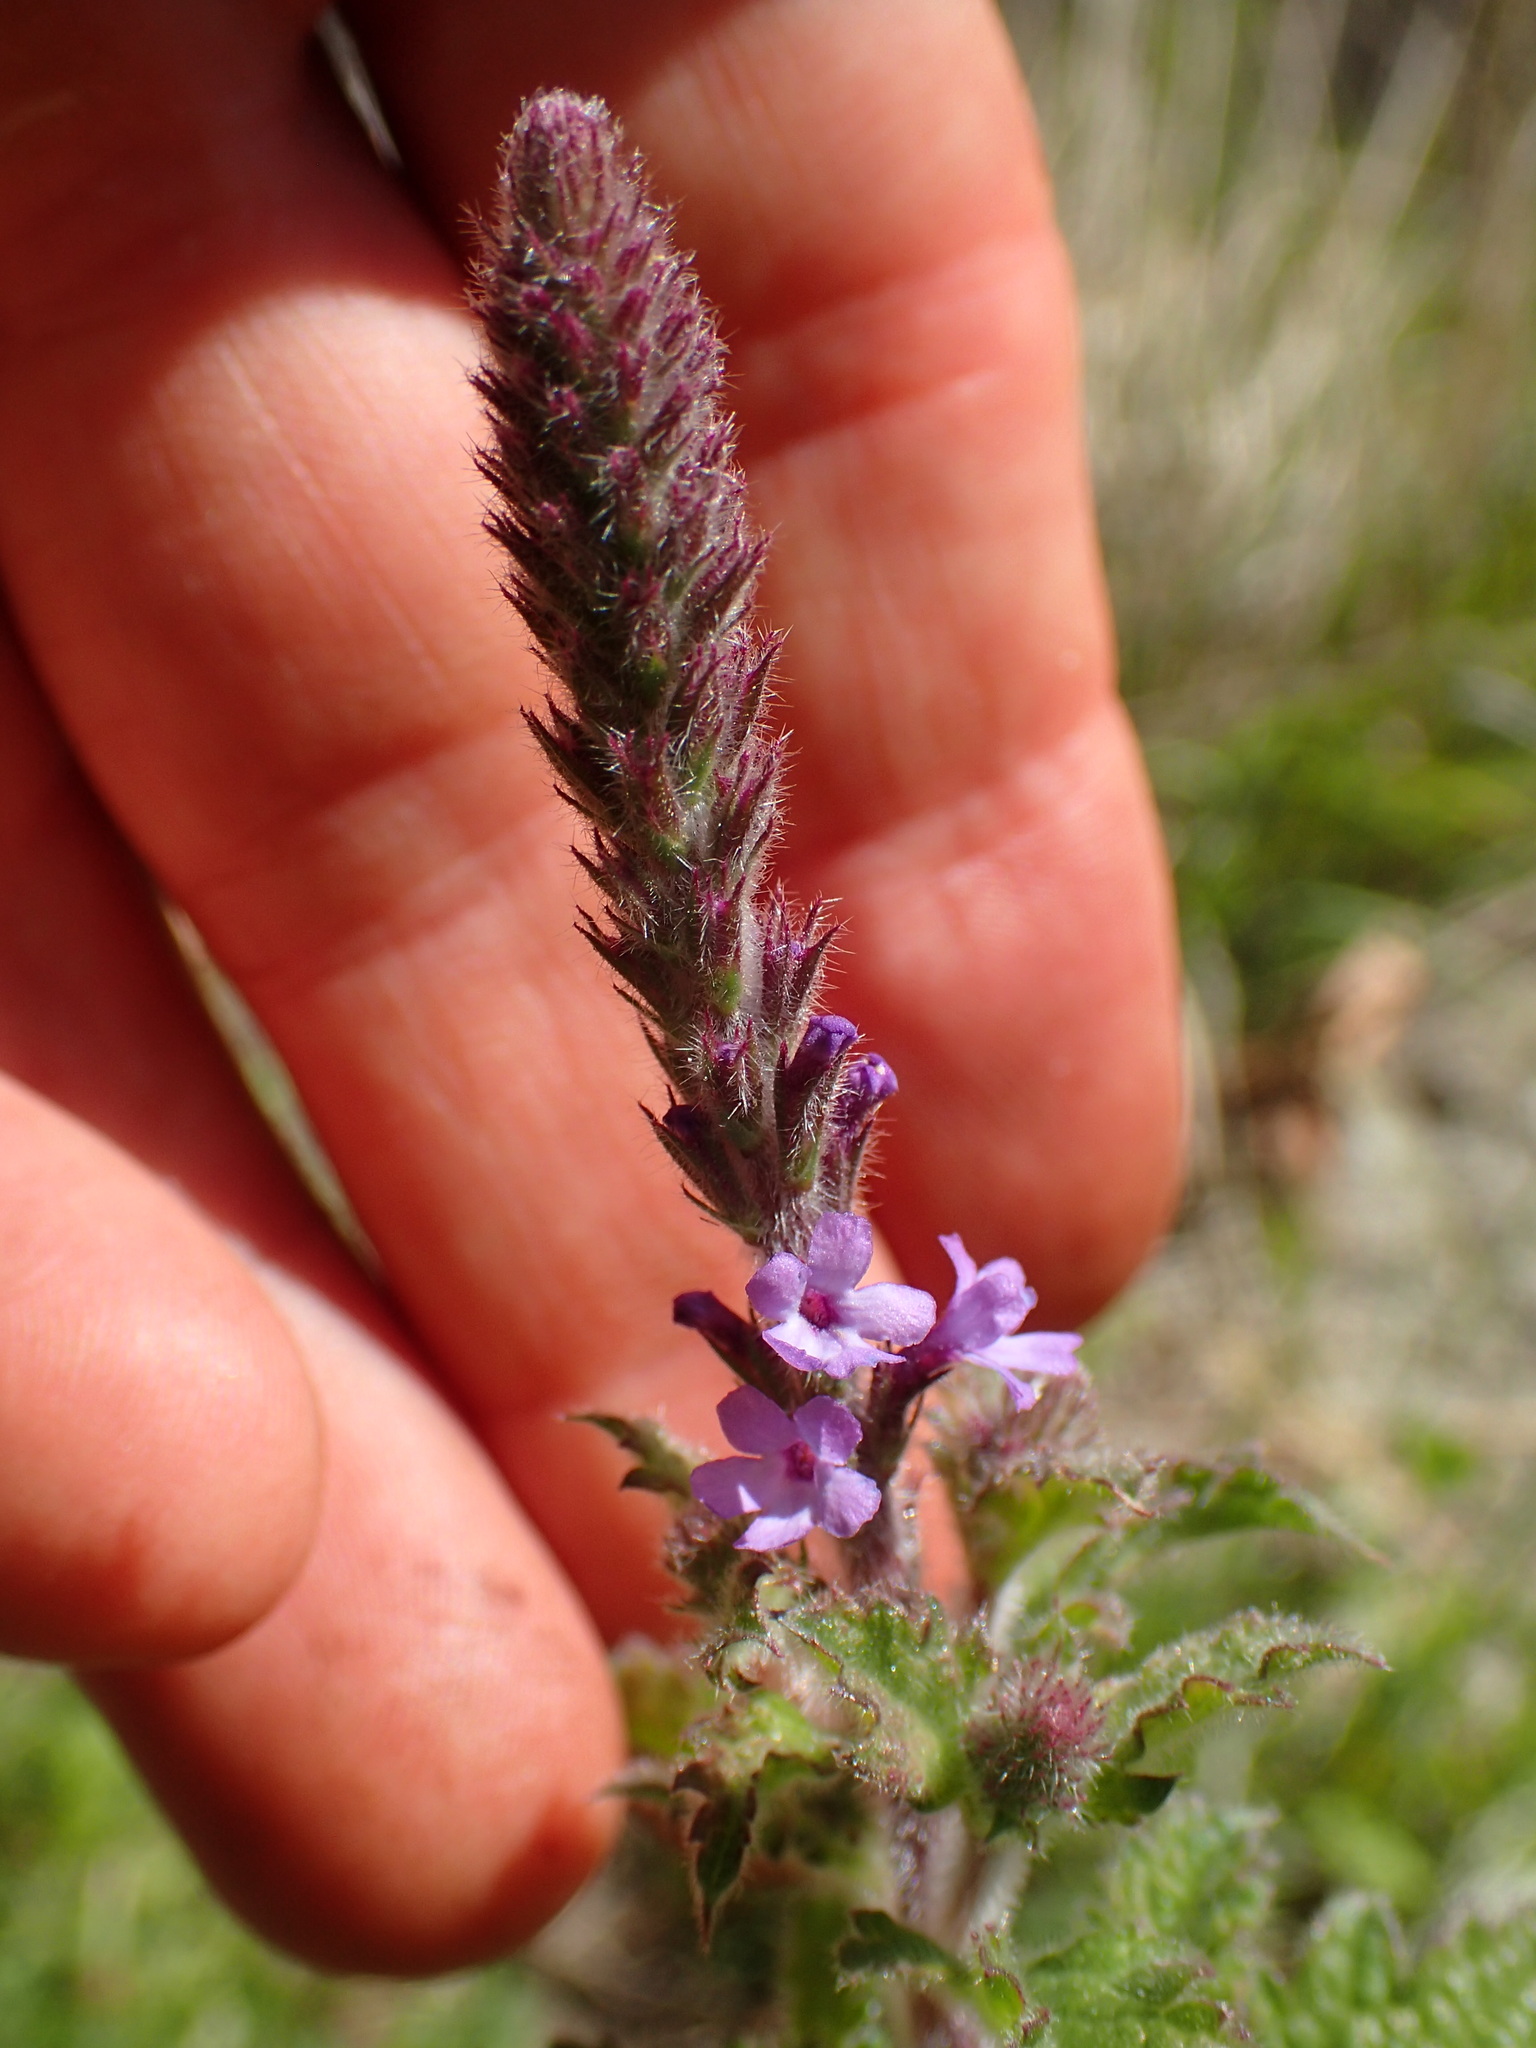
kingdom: Plantae
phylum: Tracheophyta
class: Magnoliopsida
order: Lamiales
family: Verbenaceae
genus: Verbena
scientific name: Verbena lasiostachys
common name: Vervain
